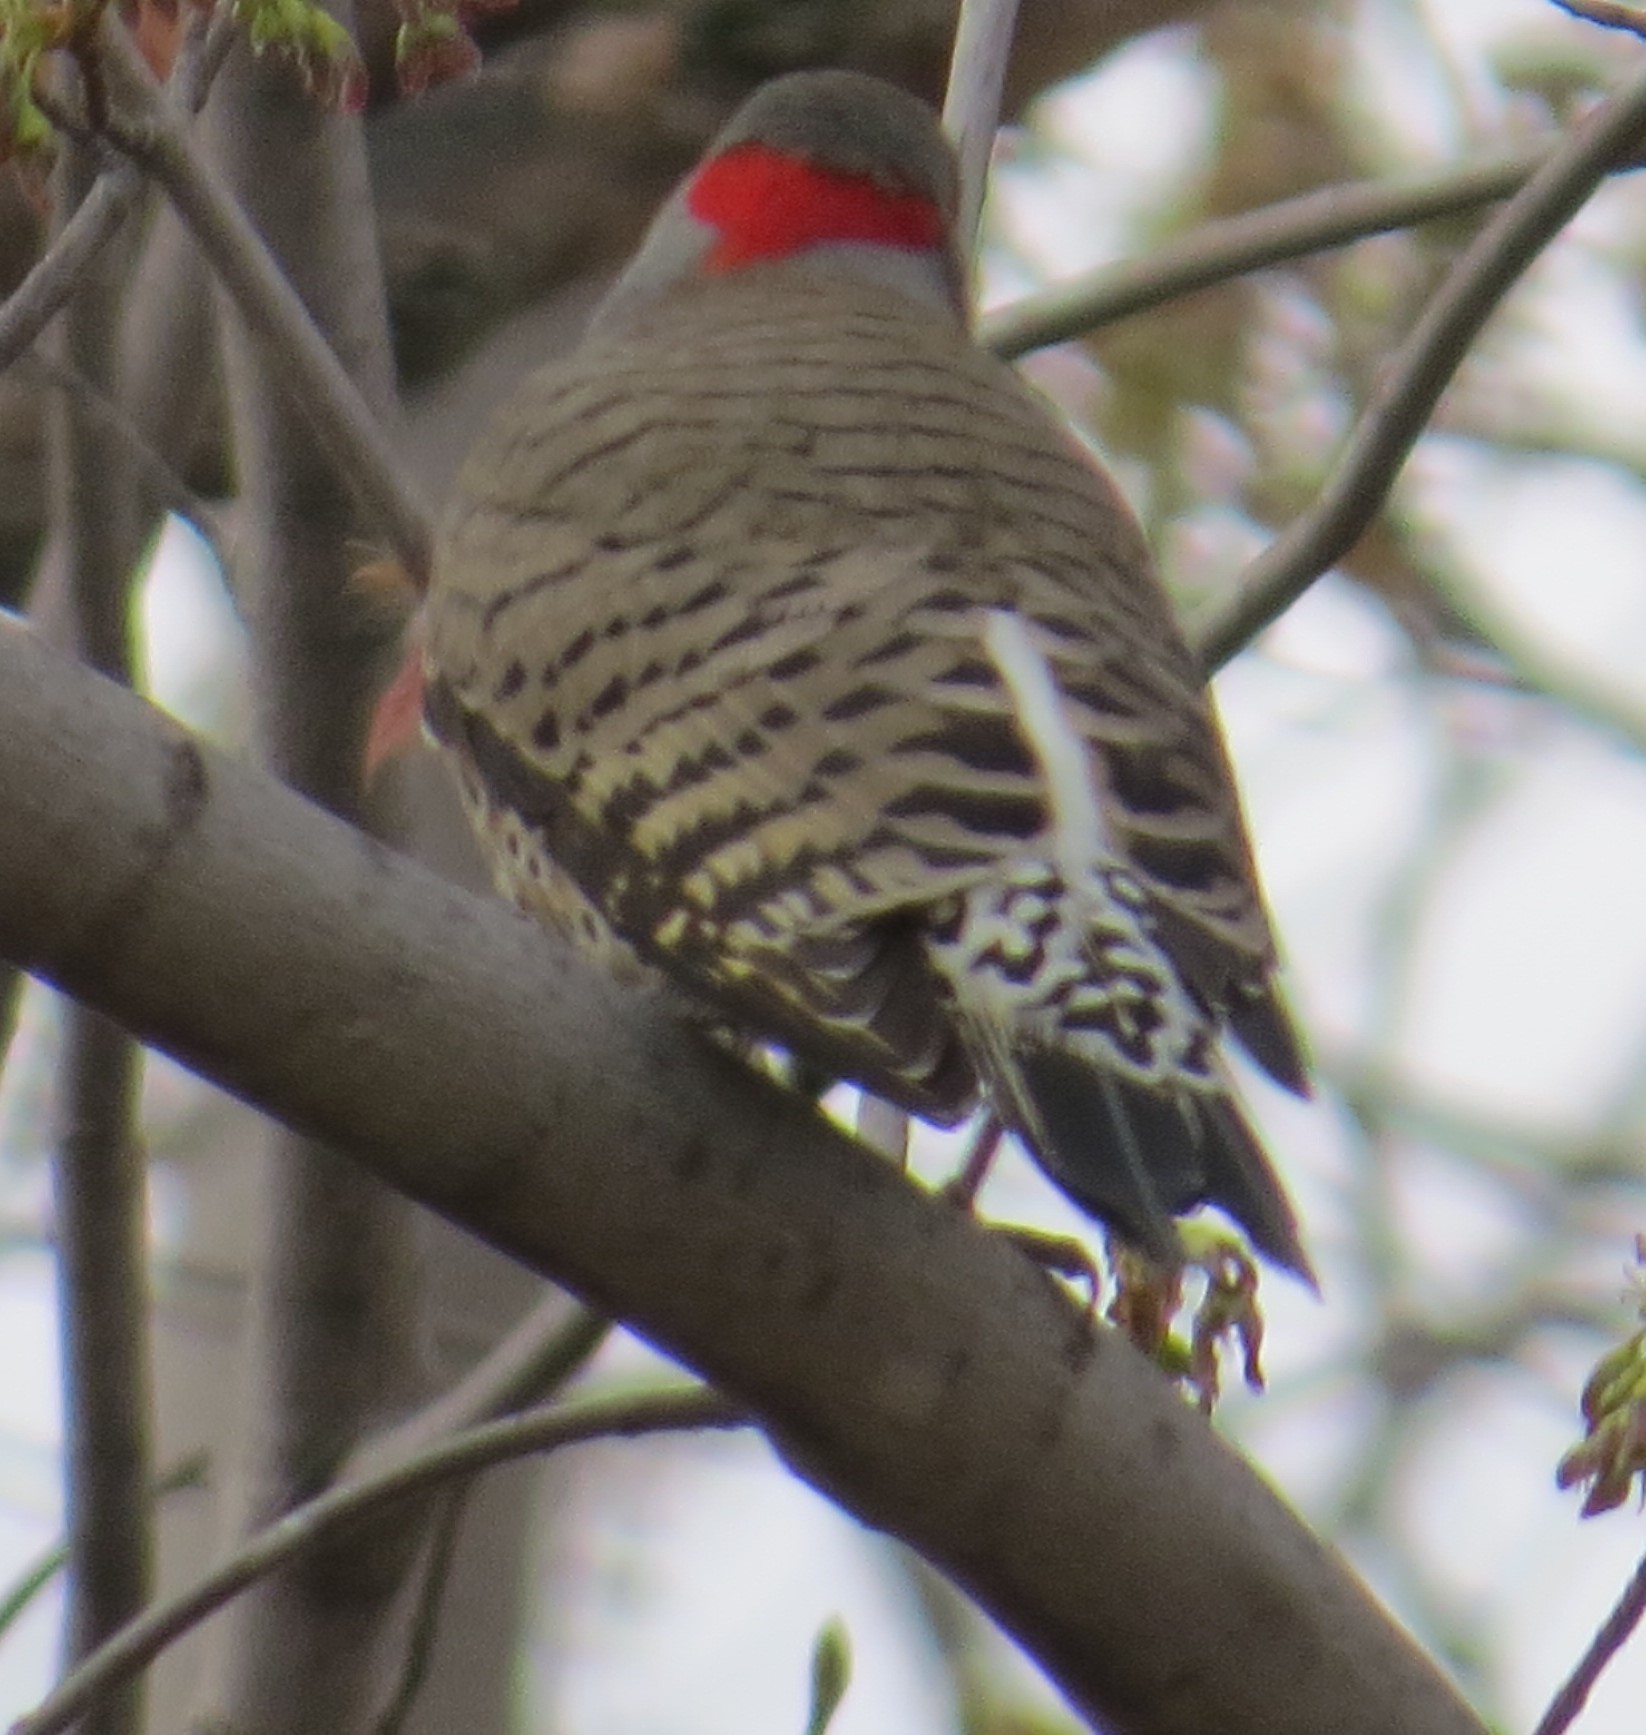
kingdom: Animalia
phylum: Chordata
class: Aves
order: Piciformes
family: Picidae
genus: Colaptes
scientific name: Colaptes auratus
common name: Northern flicker
